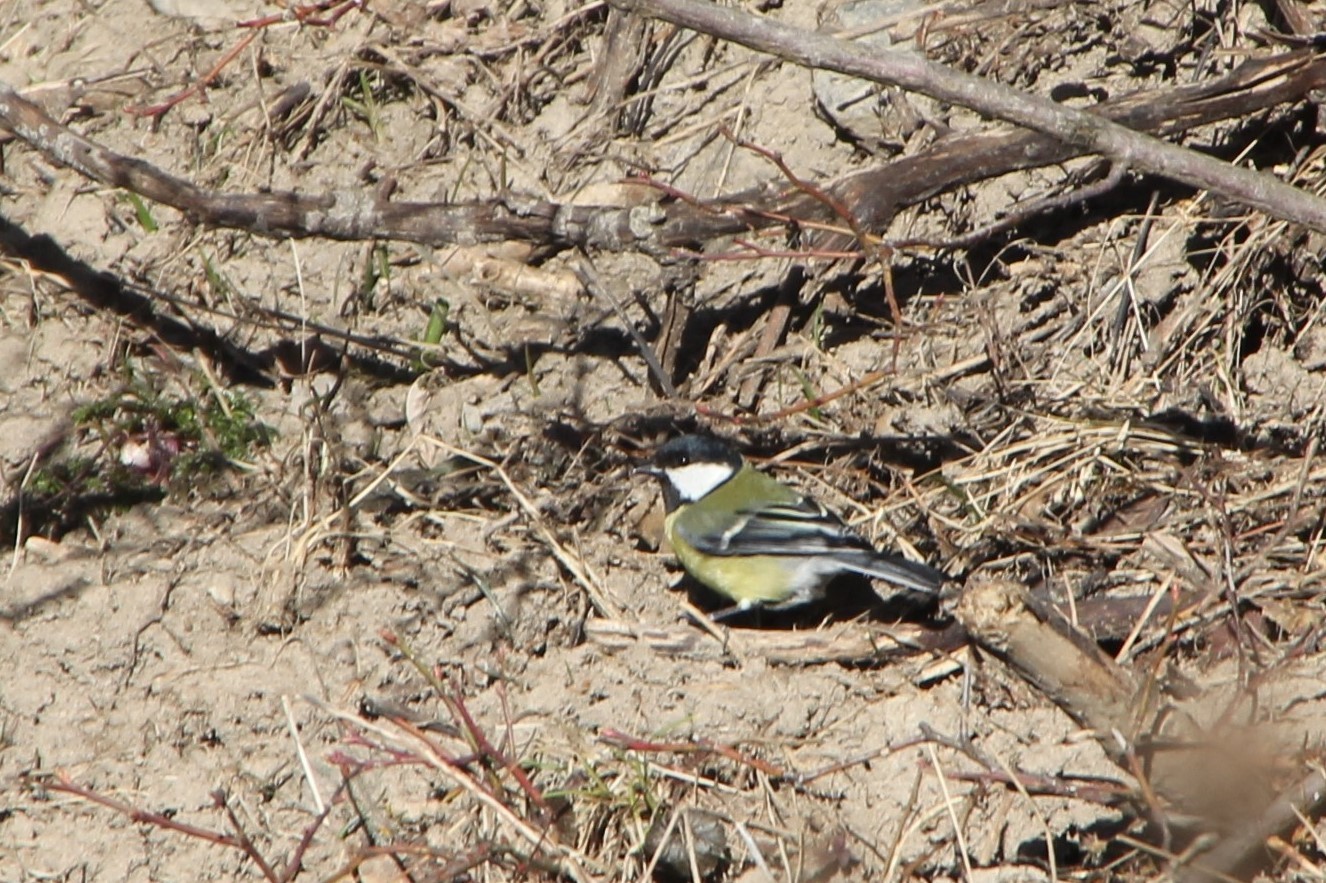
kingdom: Animalia
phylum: Chordata
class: Aves
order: Passeriformes
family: Paridae
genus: Parus
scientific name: Parus major
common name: Great tit
